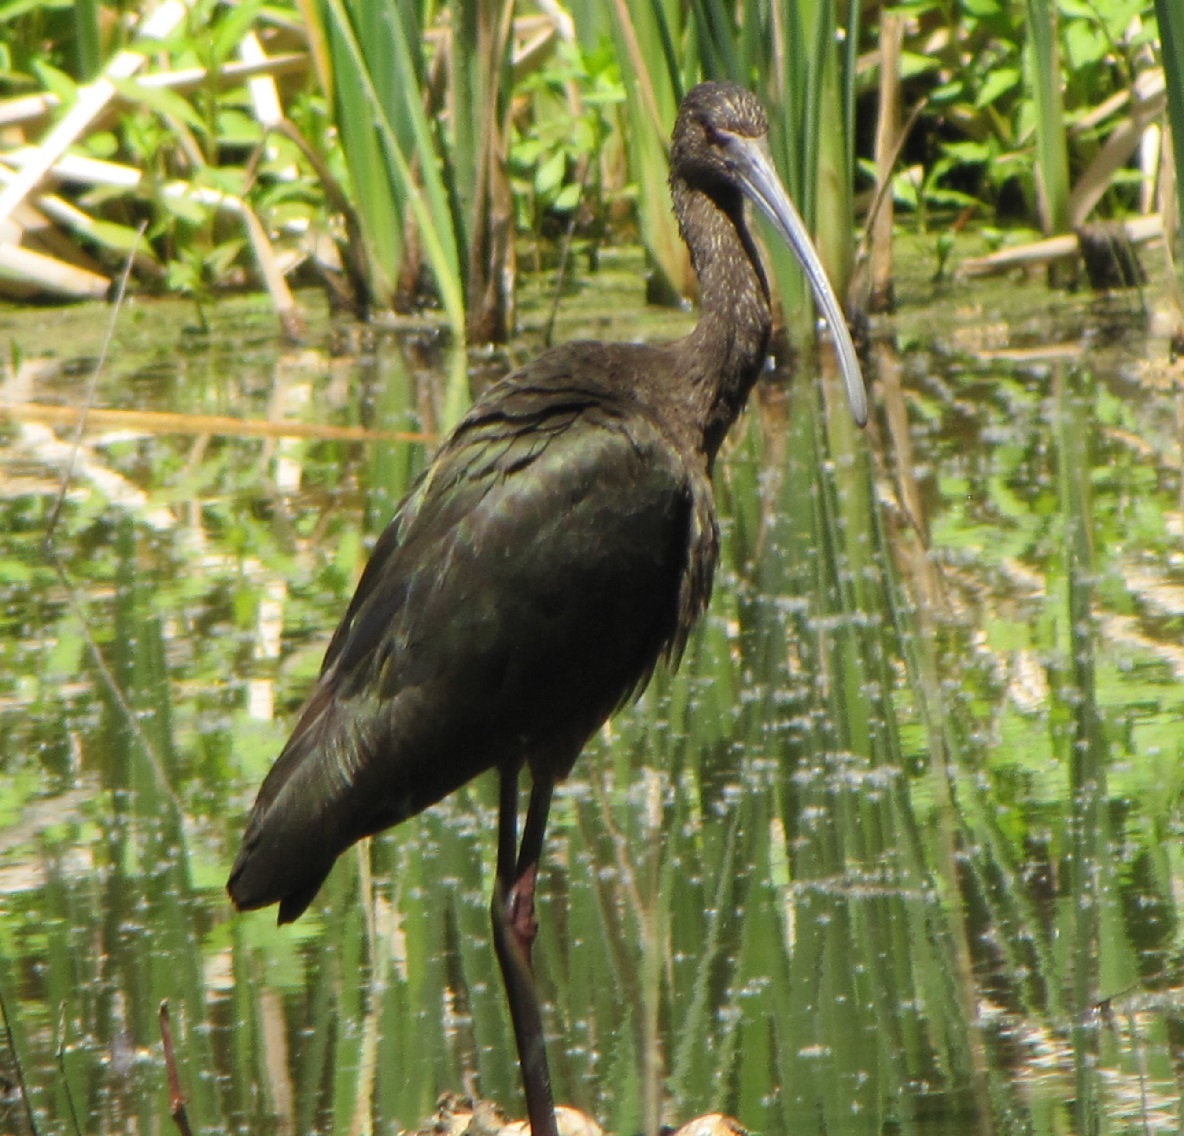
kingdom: Animalia
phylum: Chordata
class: Aves
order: Pelecaniformes
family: Threskiornithidae
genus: Plegadis
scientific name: Plegadis chihi
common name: White-faced ibis
